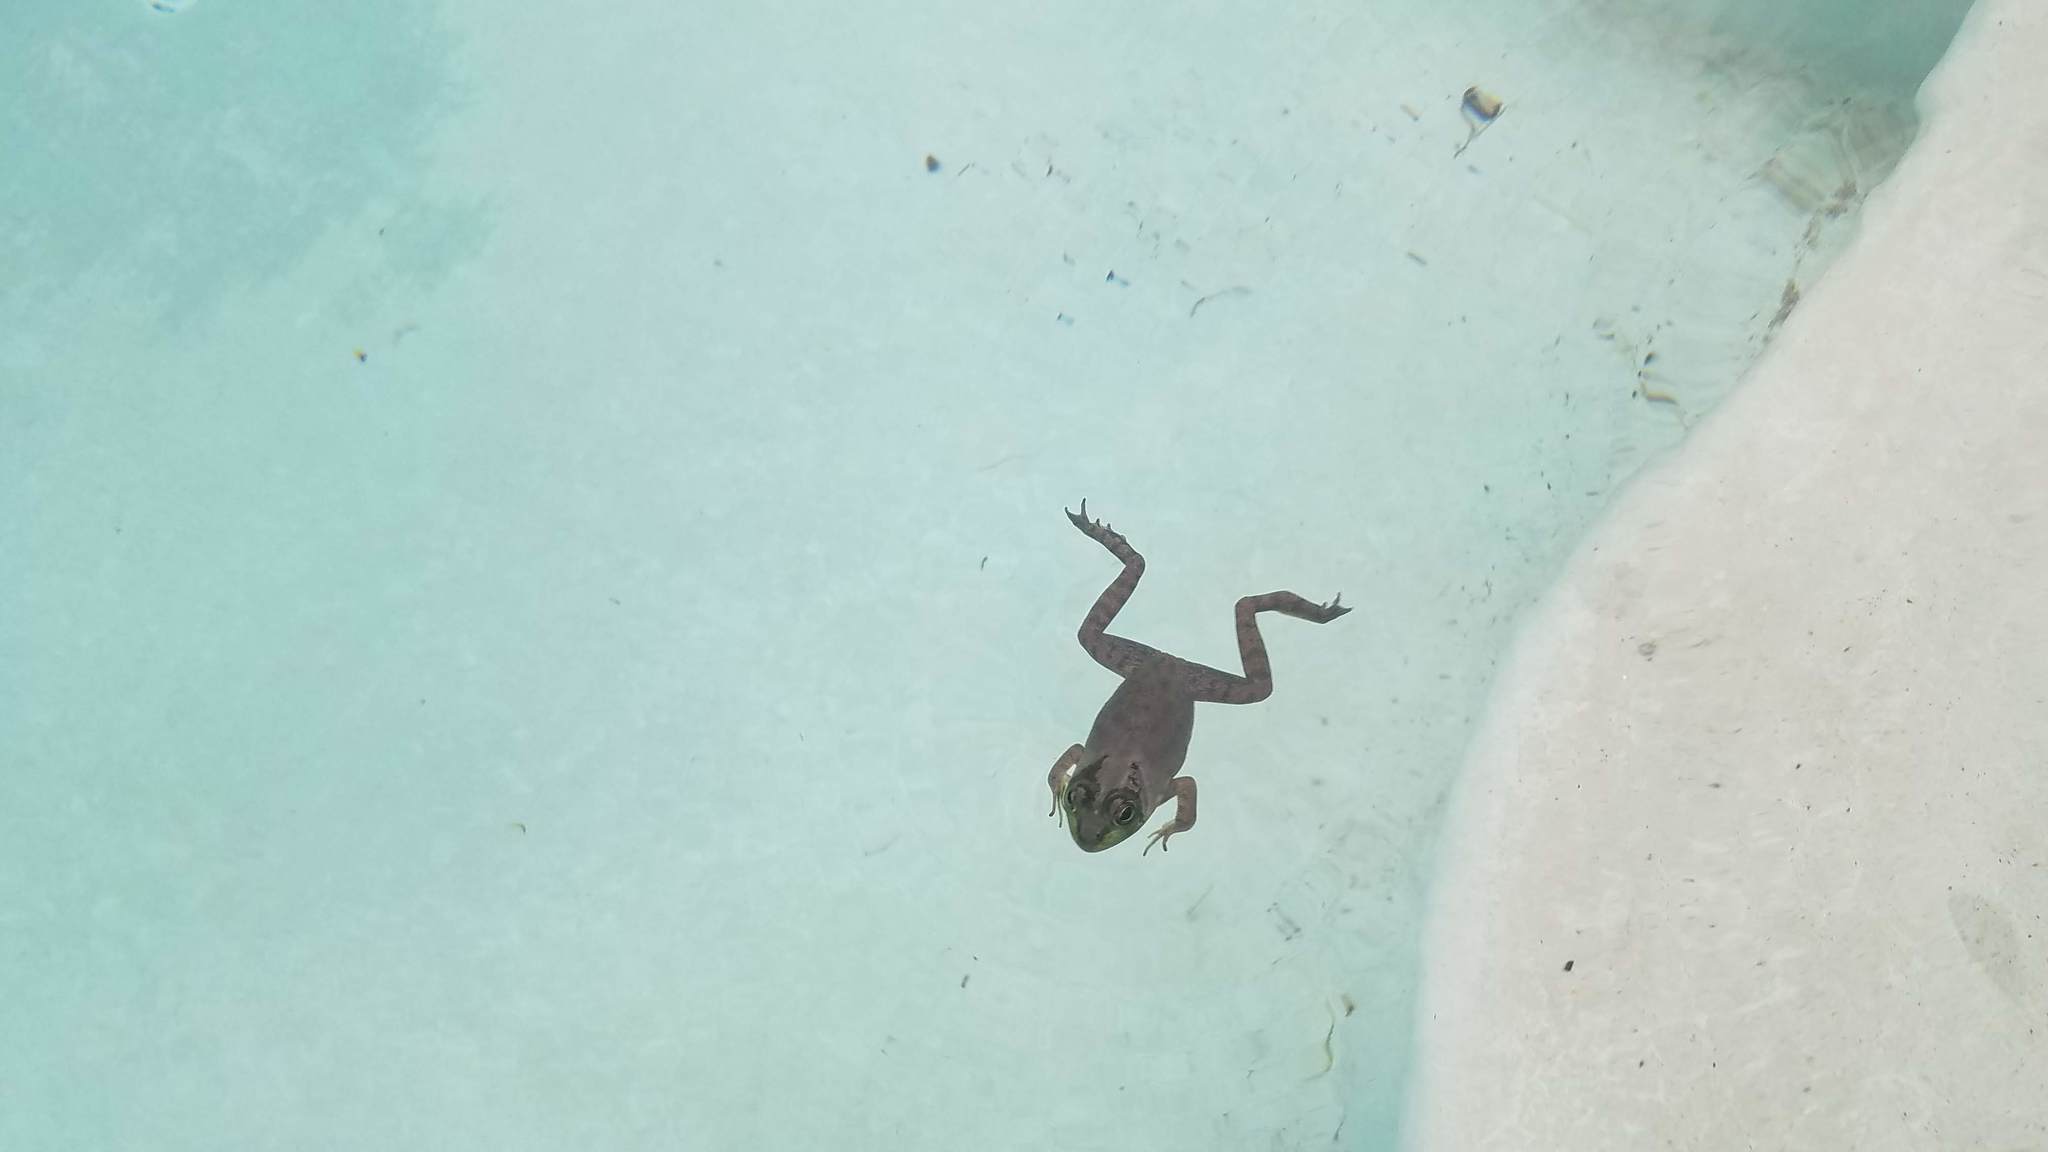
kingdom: Animalia
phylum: Chordata
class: Amphibia
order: Anura
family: Ranidae
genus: Lithobates
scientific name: Lithobates catesbeianus
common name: American bullfrog
